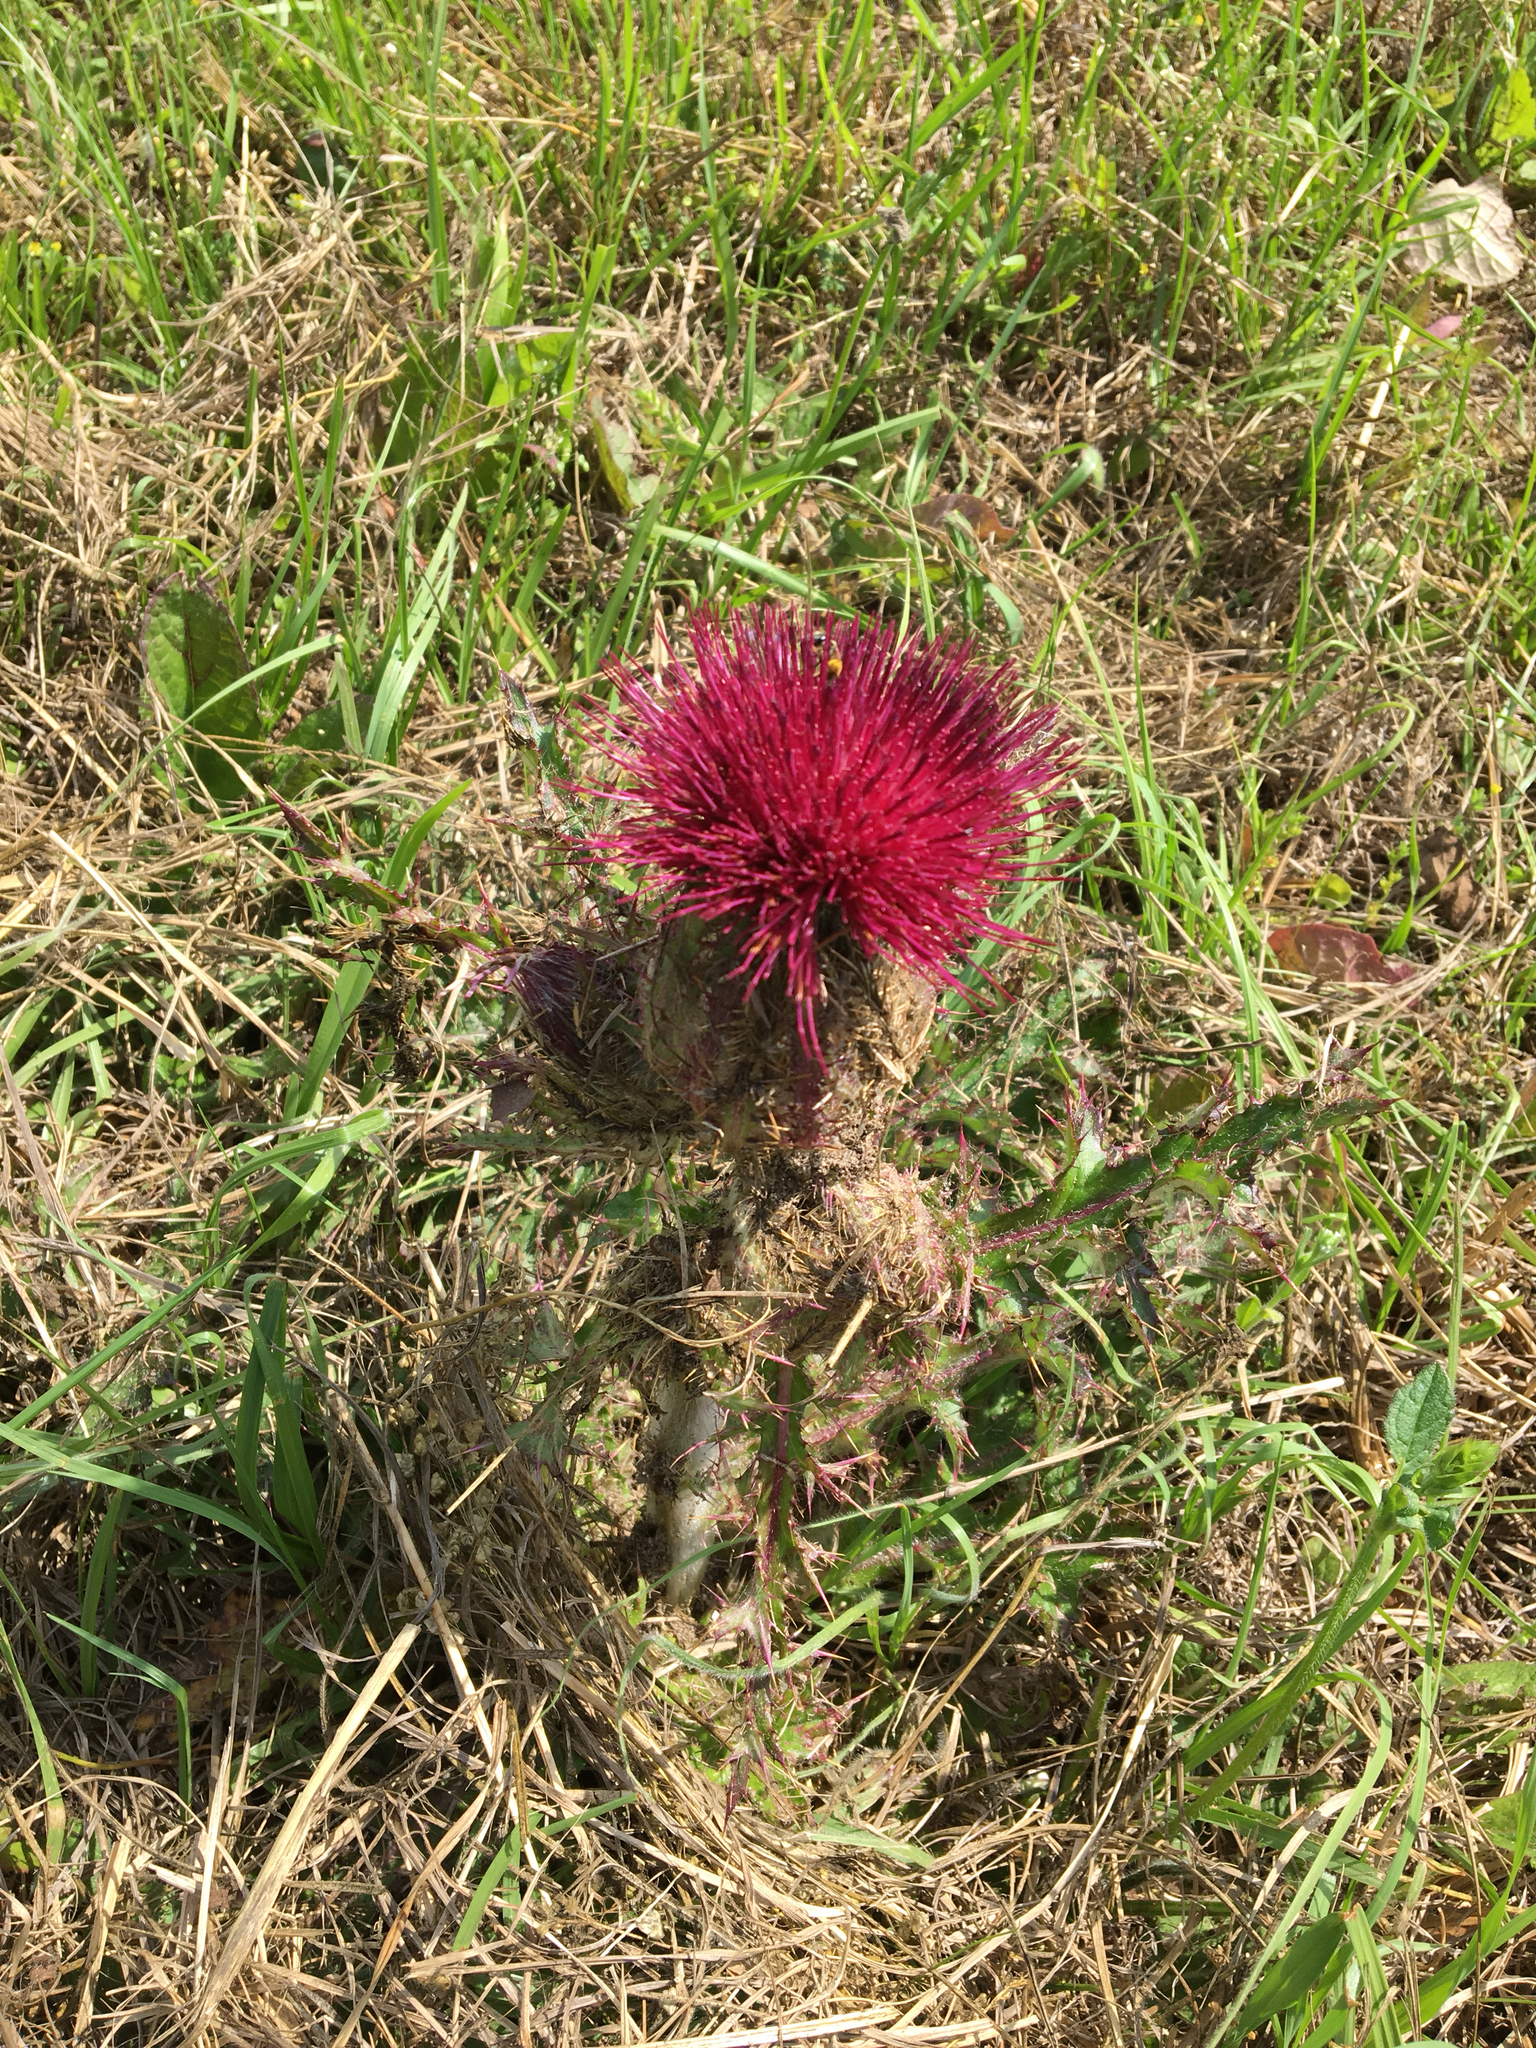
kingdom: Plantae
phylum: Tracheophyta
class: Magnoliopsida
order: Asterales
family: Asteraceae
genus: Cirsium
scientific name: Cirsium horridulum
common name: Bristly thistle
